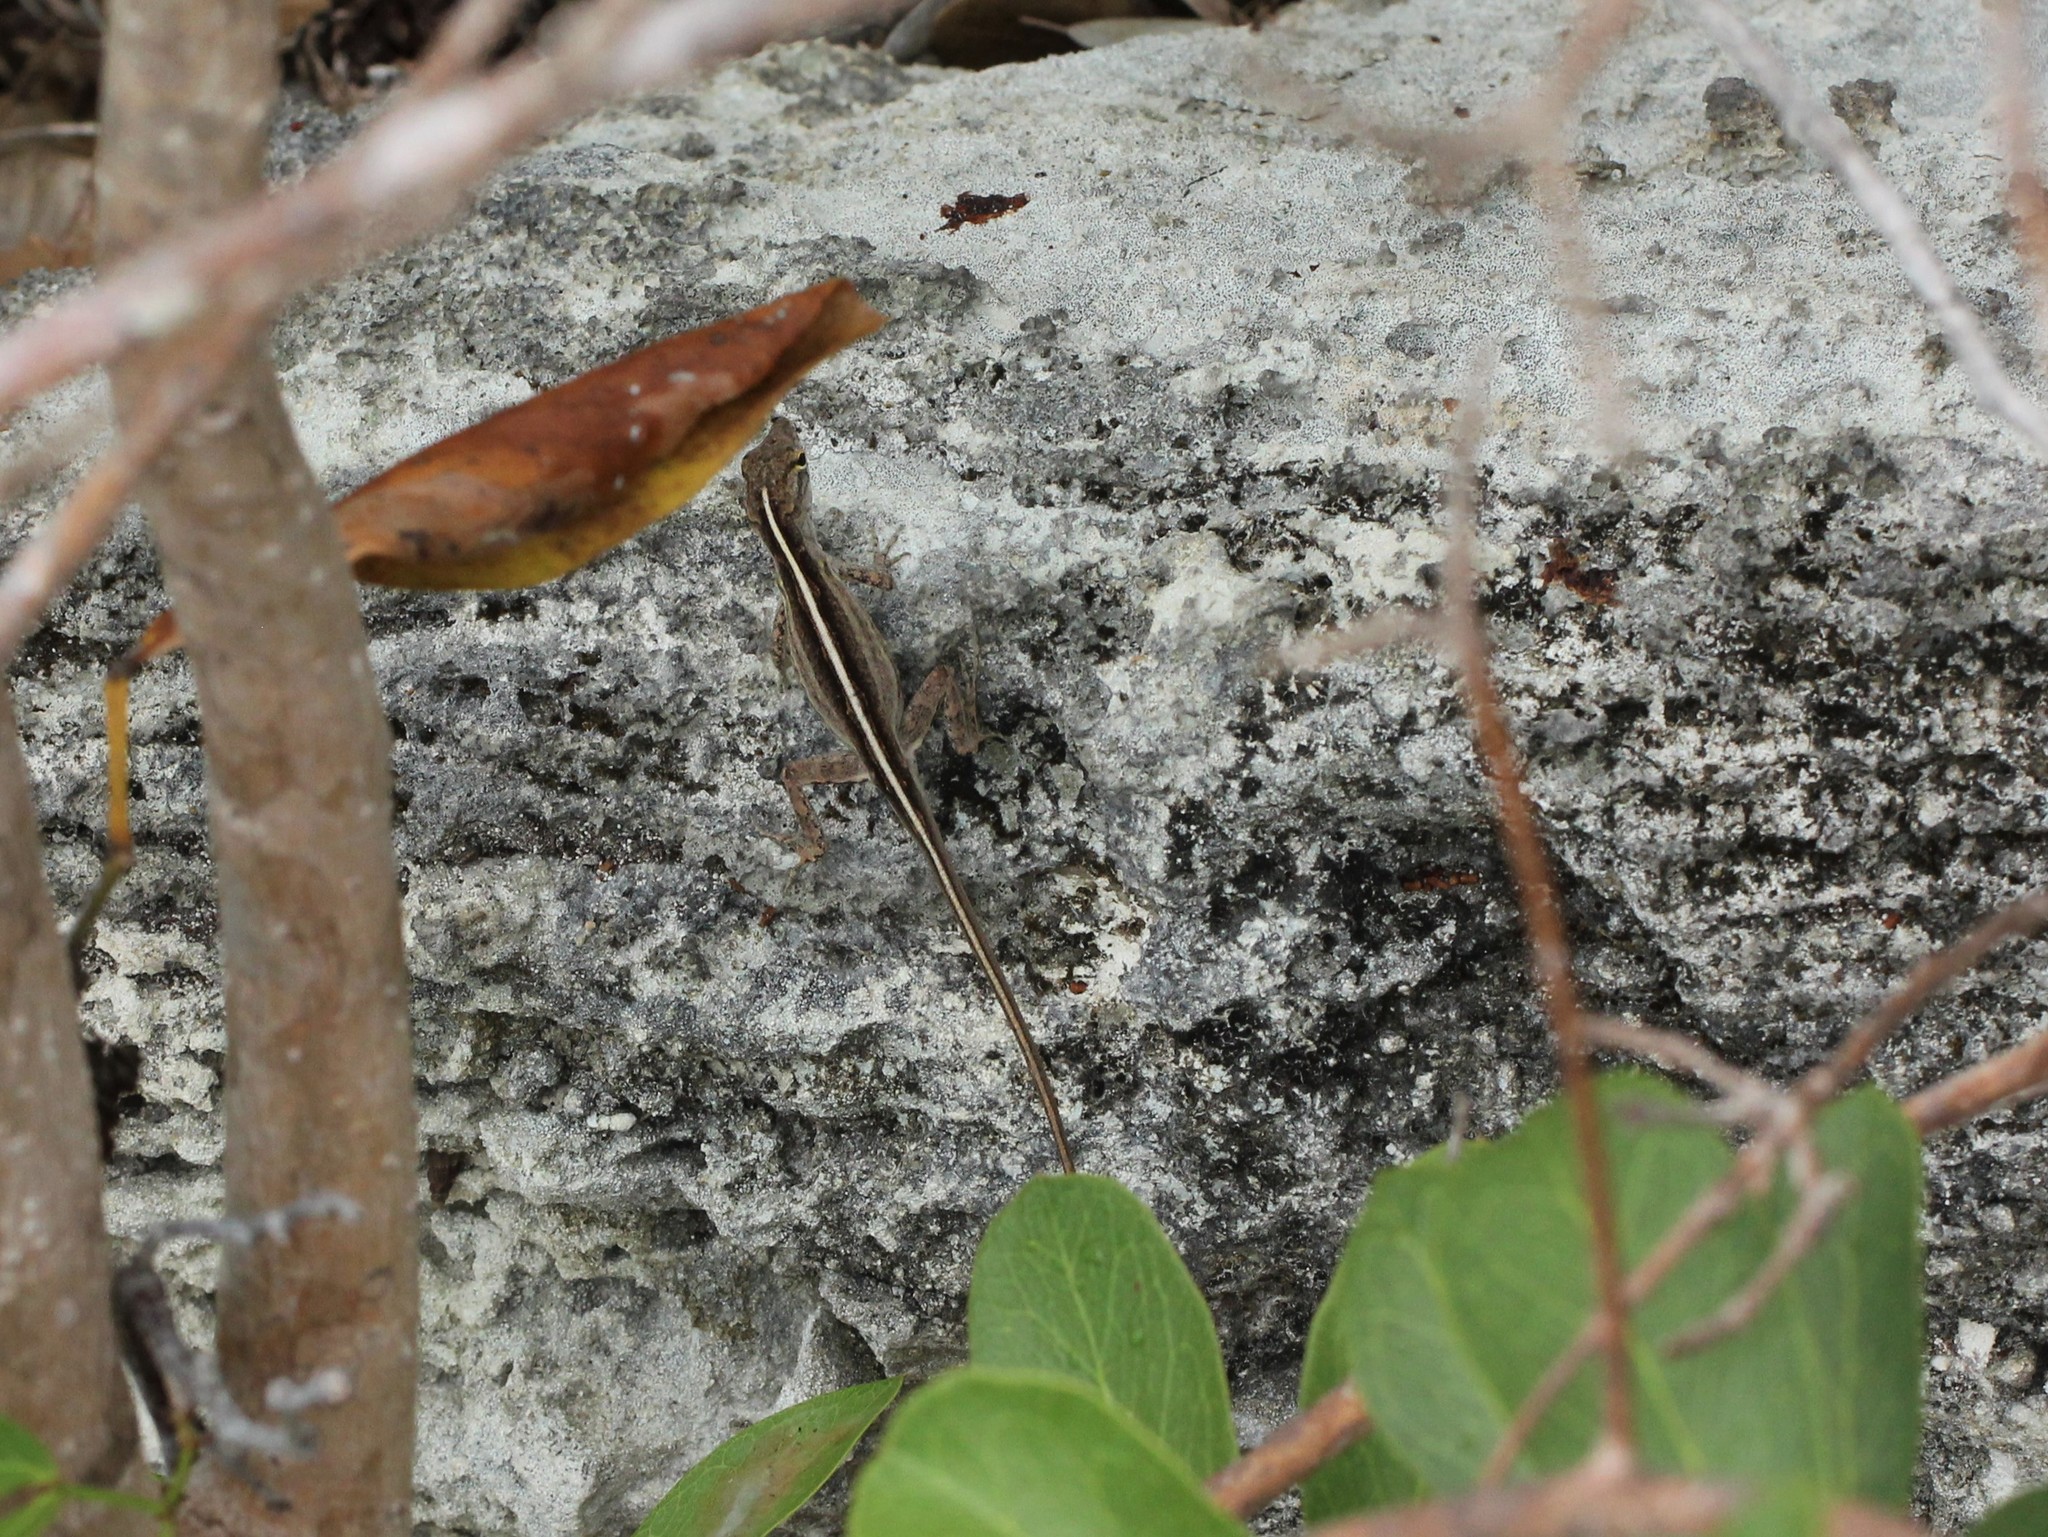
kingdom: Animalia
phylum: Chordata
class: Squamata
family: Dactyloidae
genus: Anolis
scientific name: Anolis sagrei
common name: Brown anole
